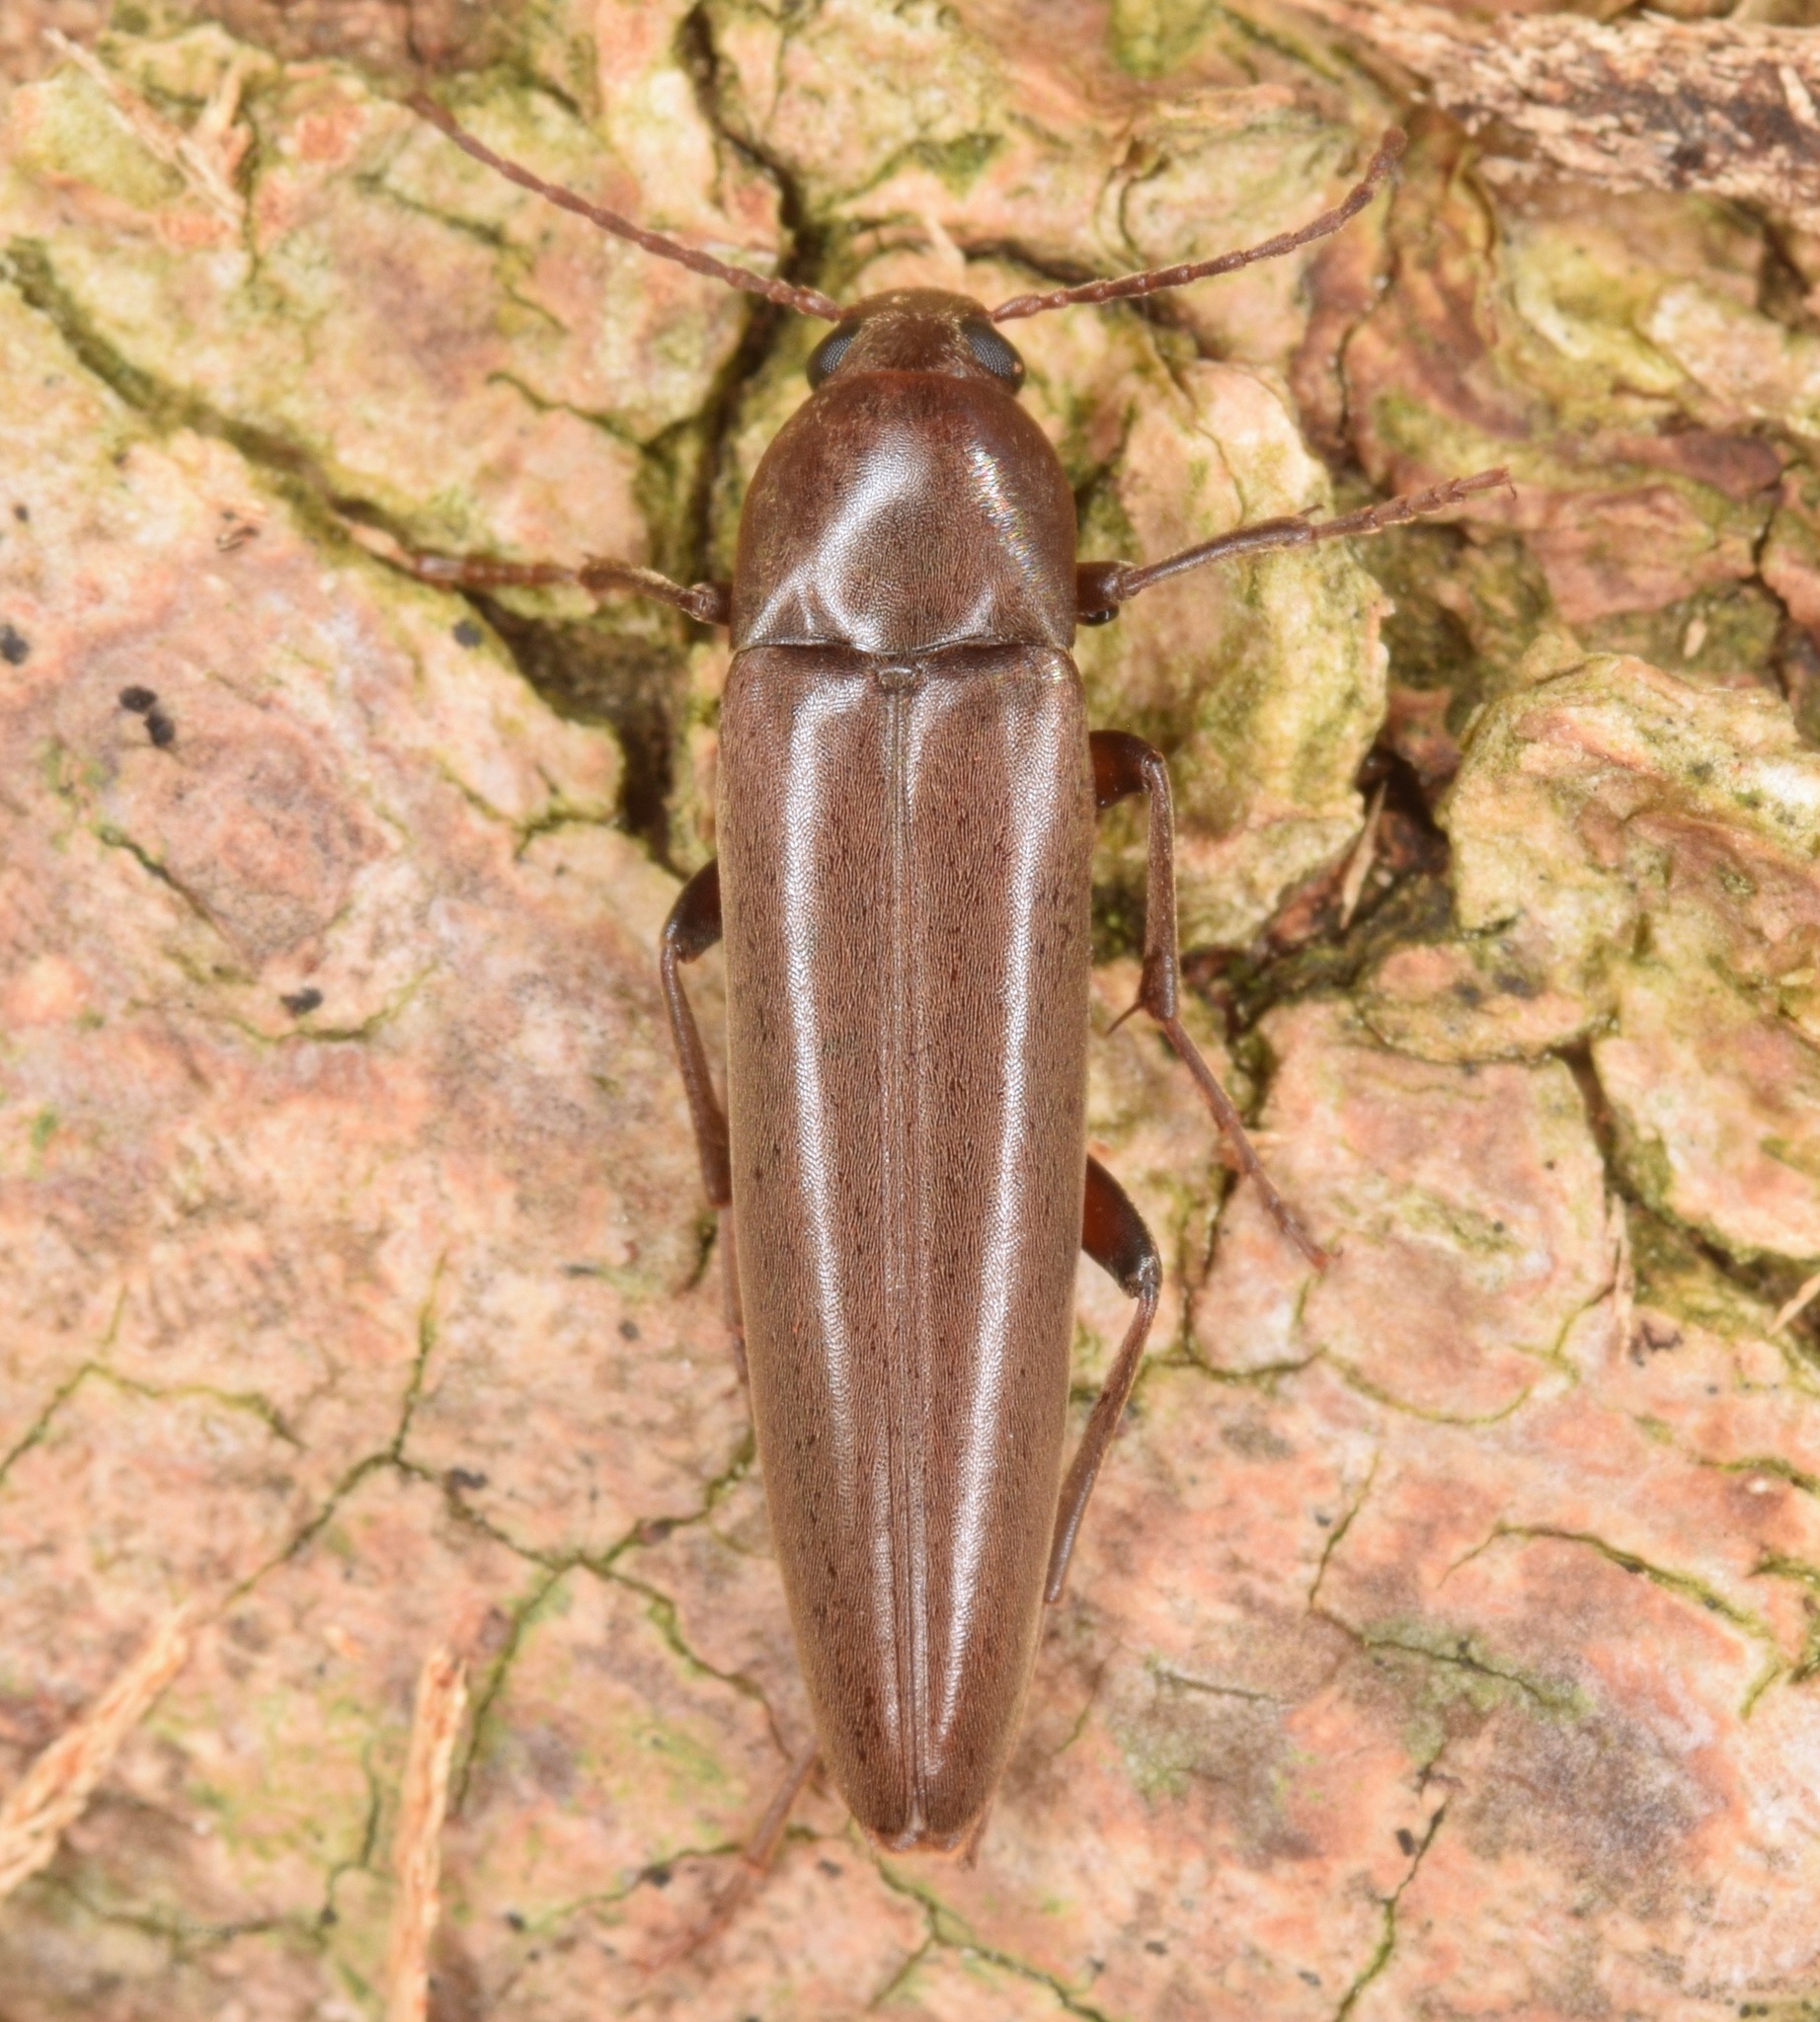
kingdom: Animalia
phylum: Arthropoda
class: Insecta
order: Coleoptera
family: Melandryidae
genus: Enchodes
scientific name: Enchodes sericea
